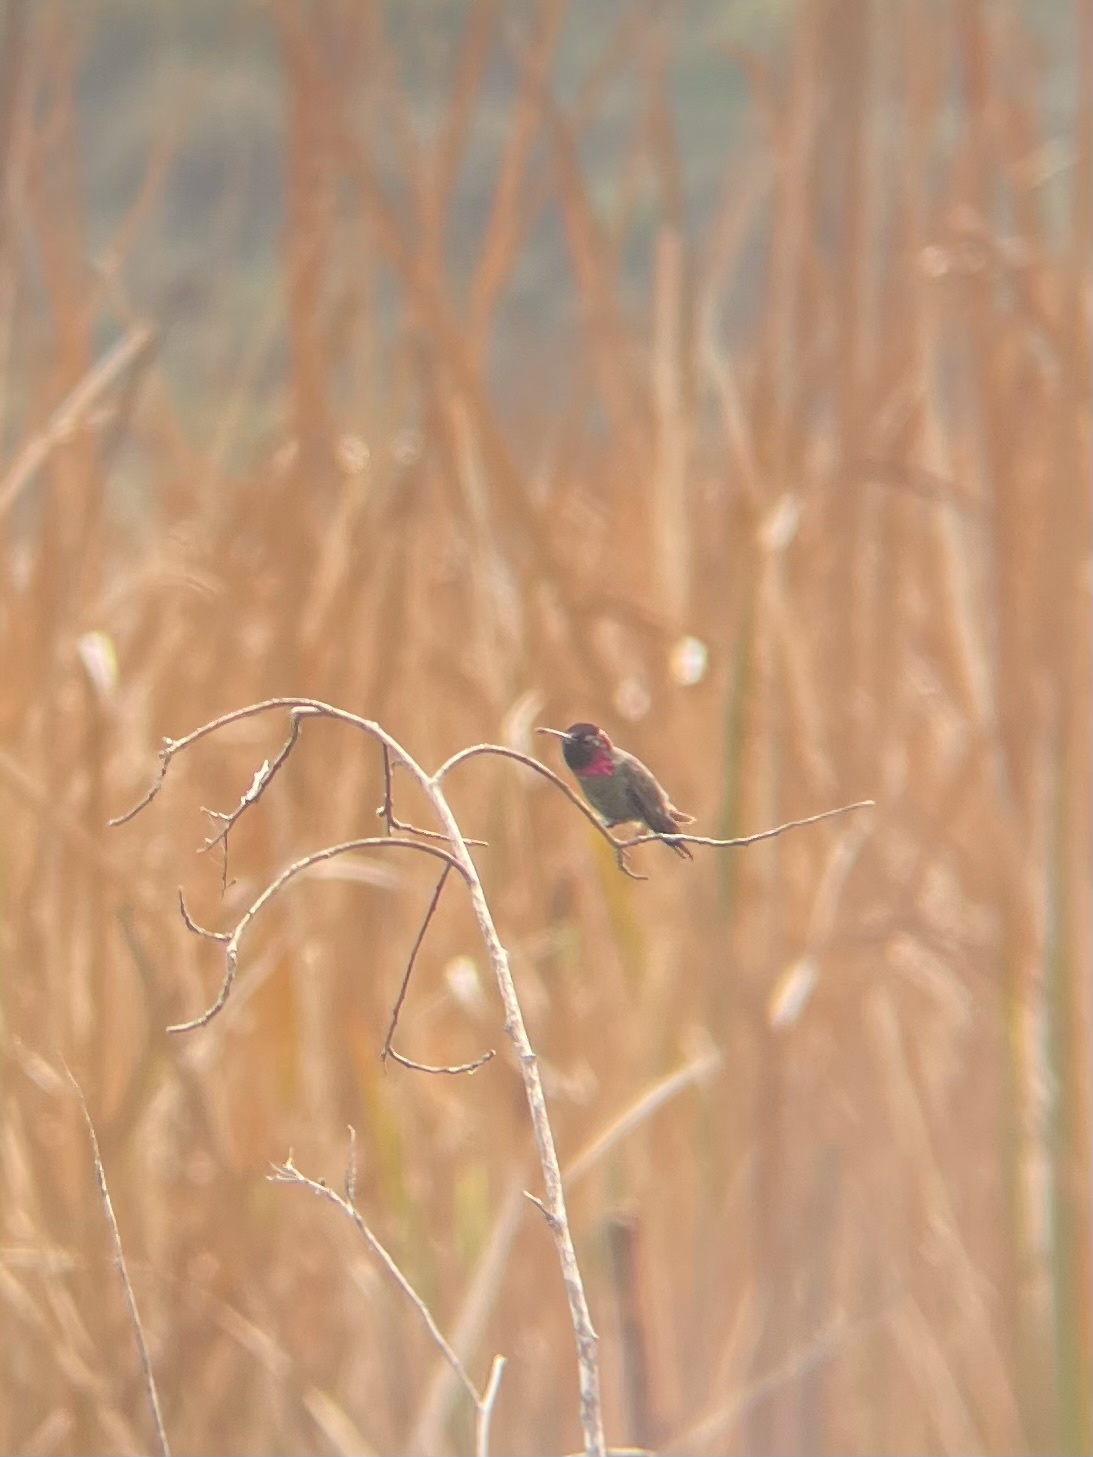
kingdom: Animalia
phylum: Chordata
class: Aves
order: Apodiformes
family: Trochilidae
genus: Calypte
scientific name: Calypte anna
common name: Anna's hummingbird
